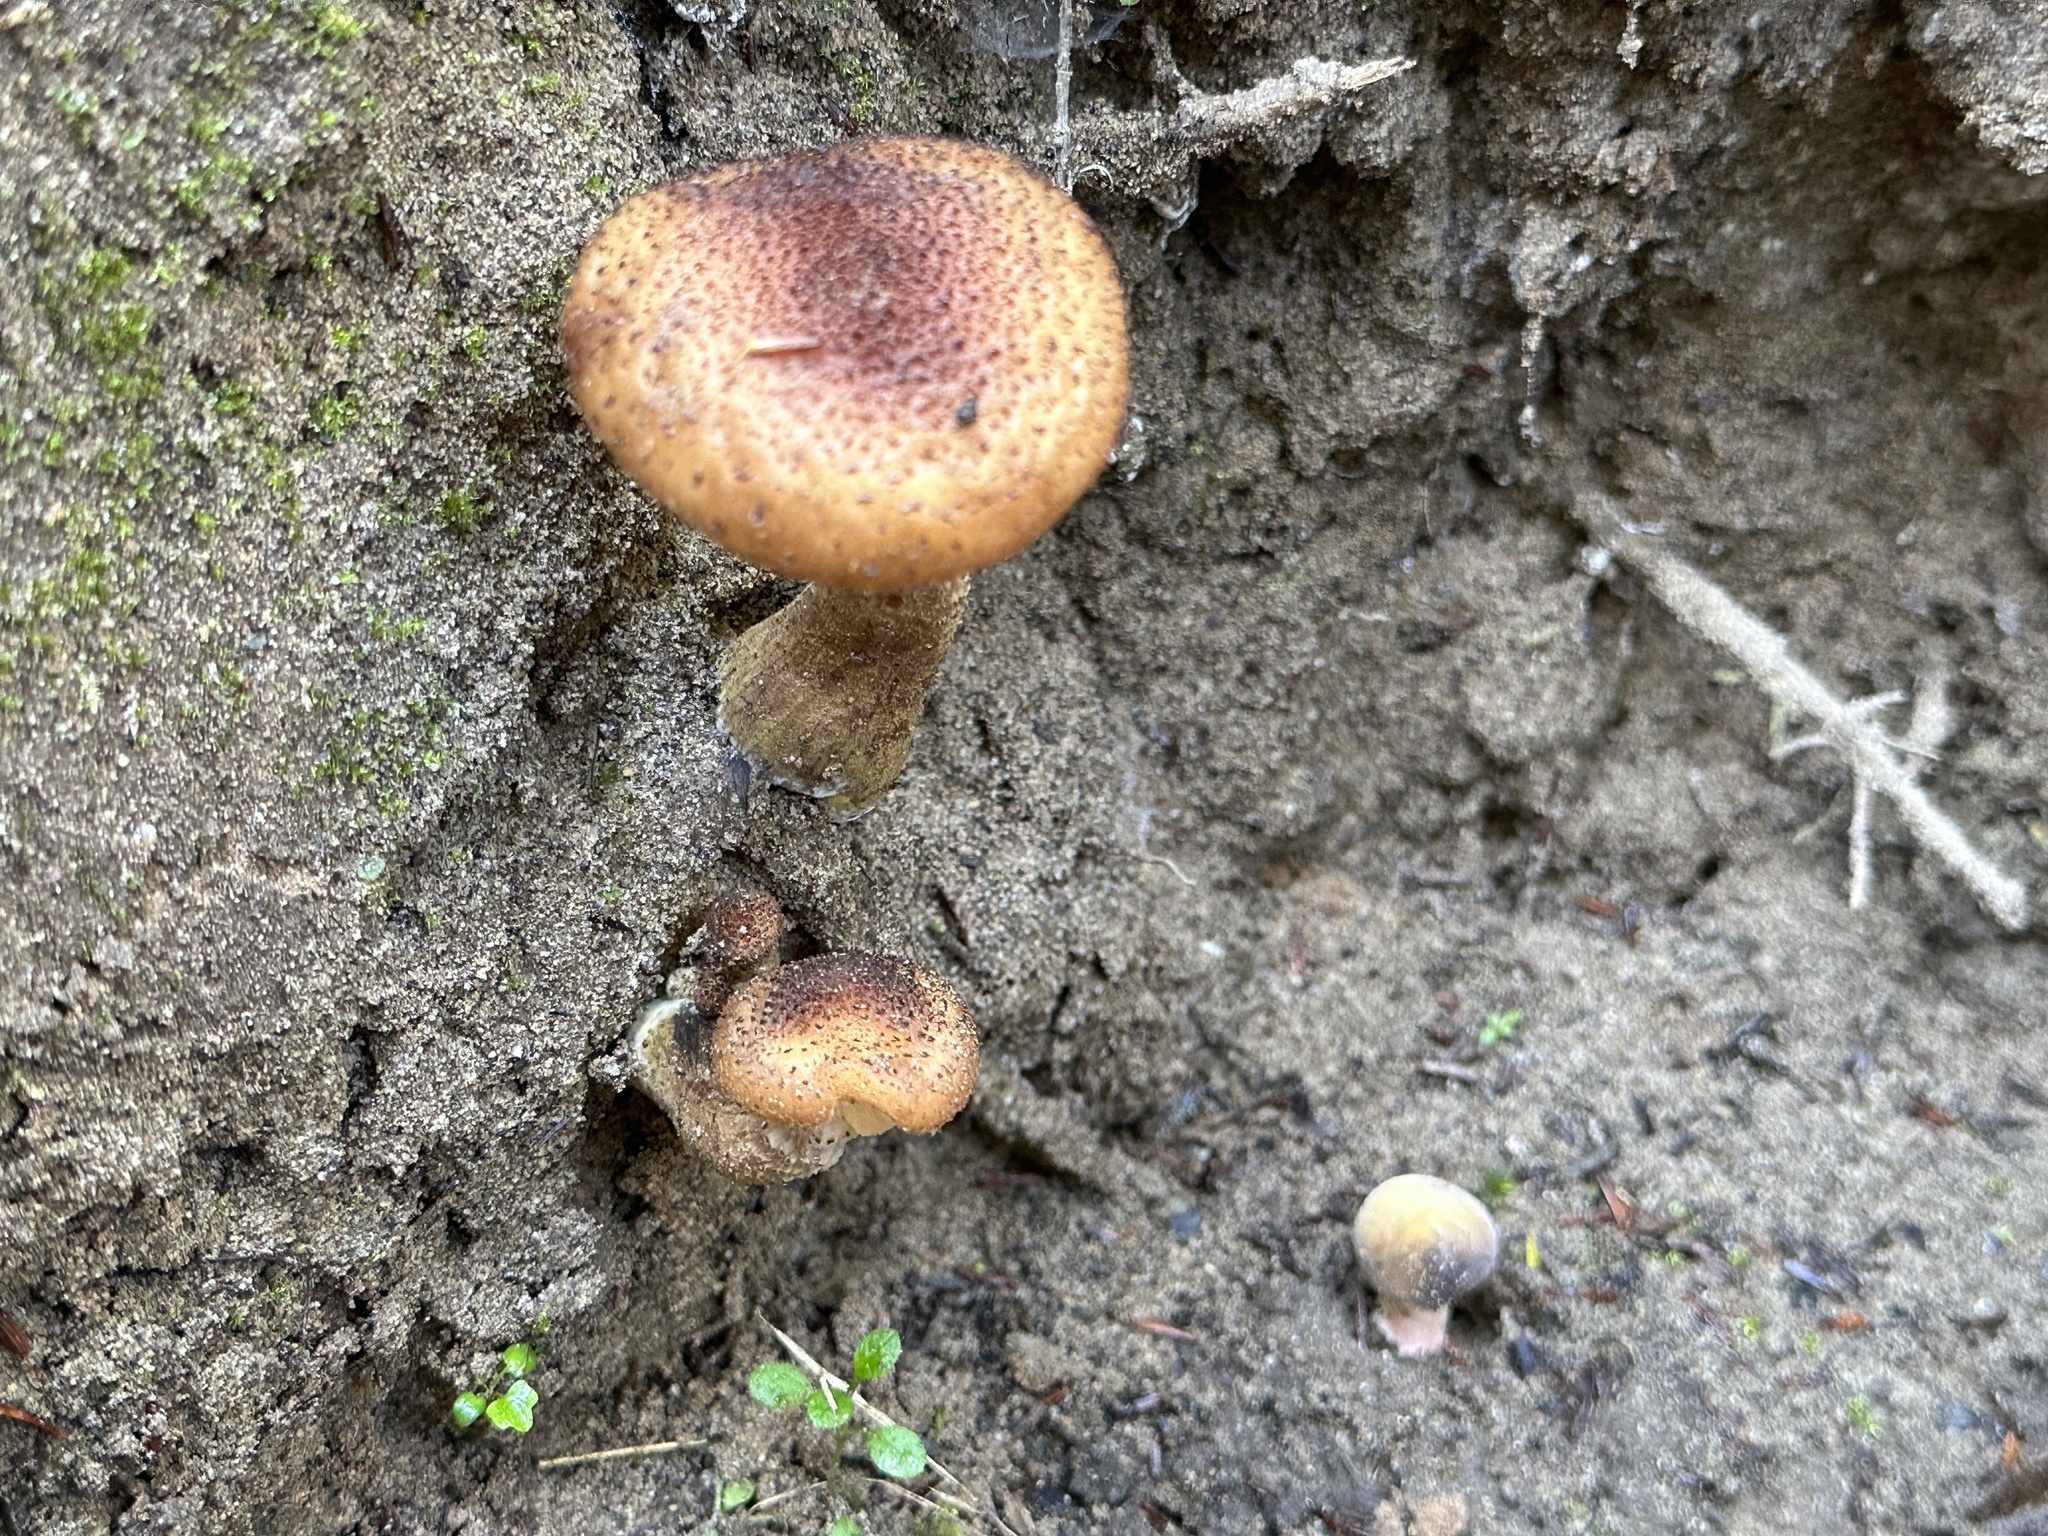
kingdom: Fungi
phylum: Basidiomycota
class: Agaricomycetes
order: Agaricales
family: Physalacriaceae
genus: Armillaria
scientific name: Armillaria gallica
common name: Bulbous honey fungus
